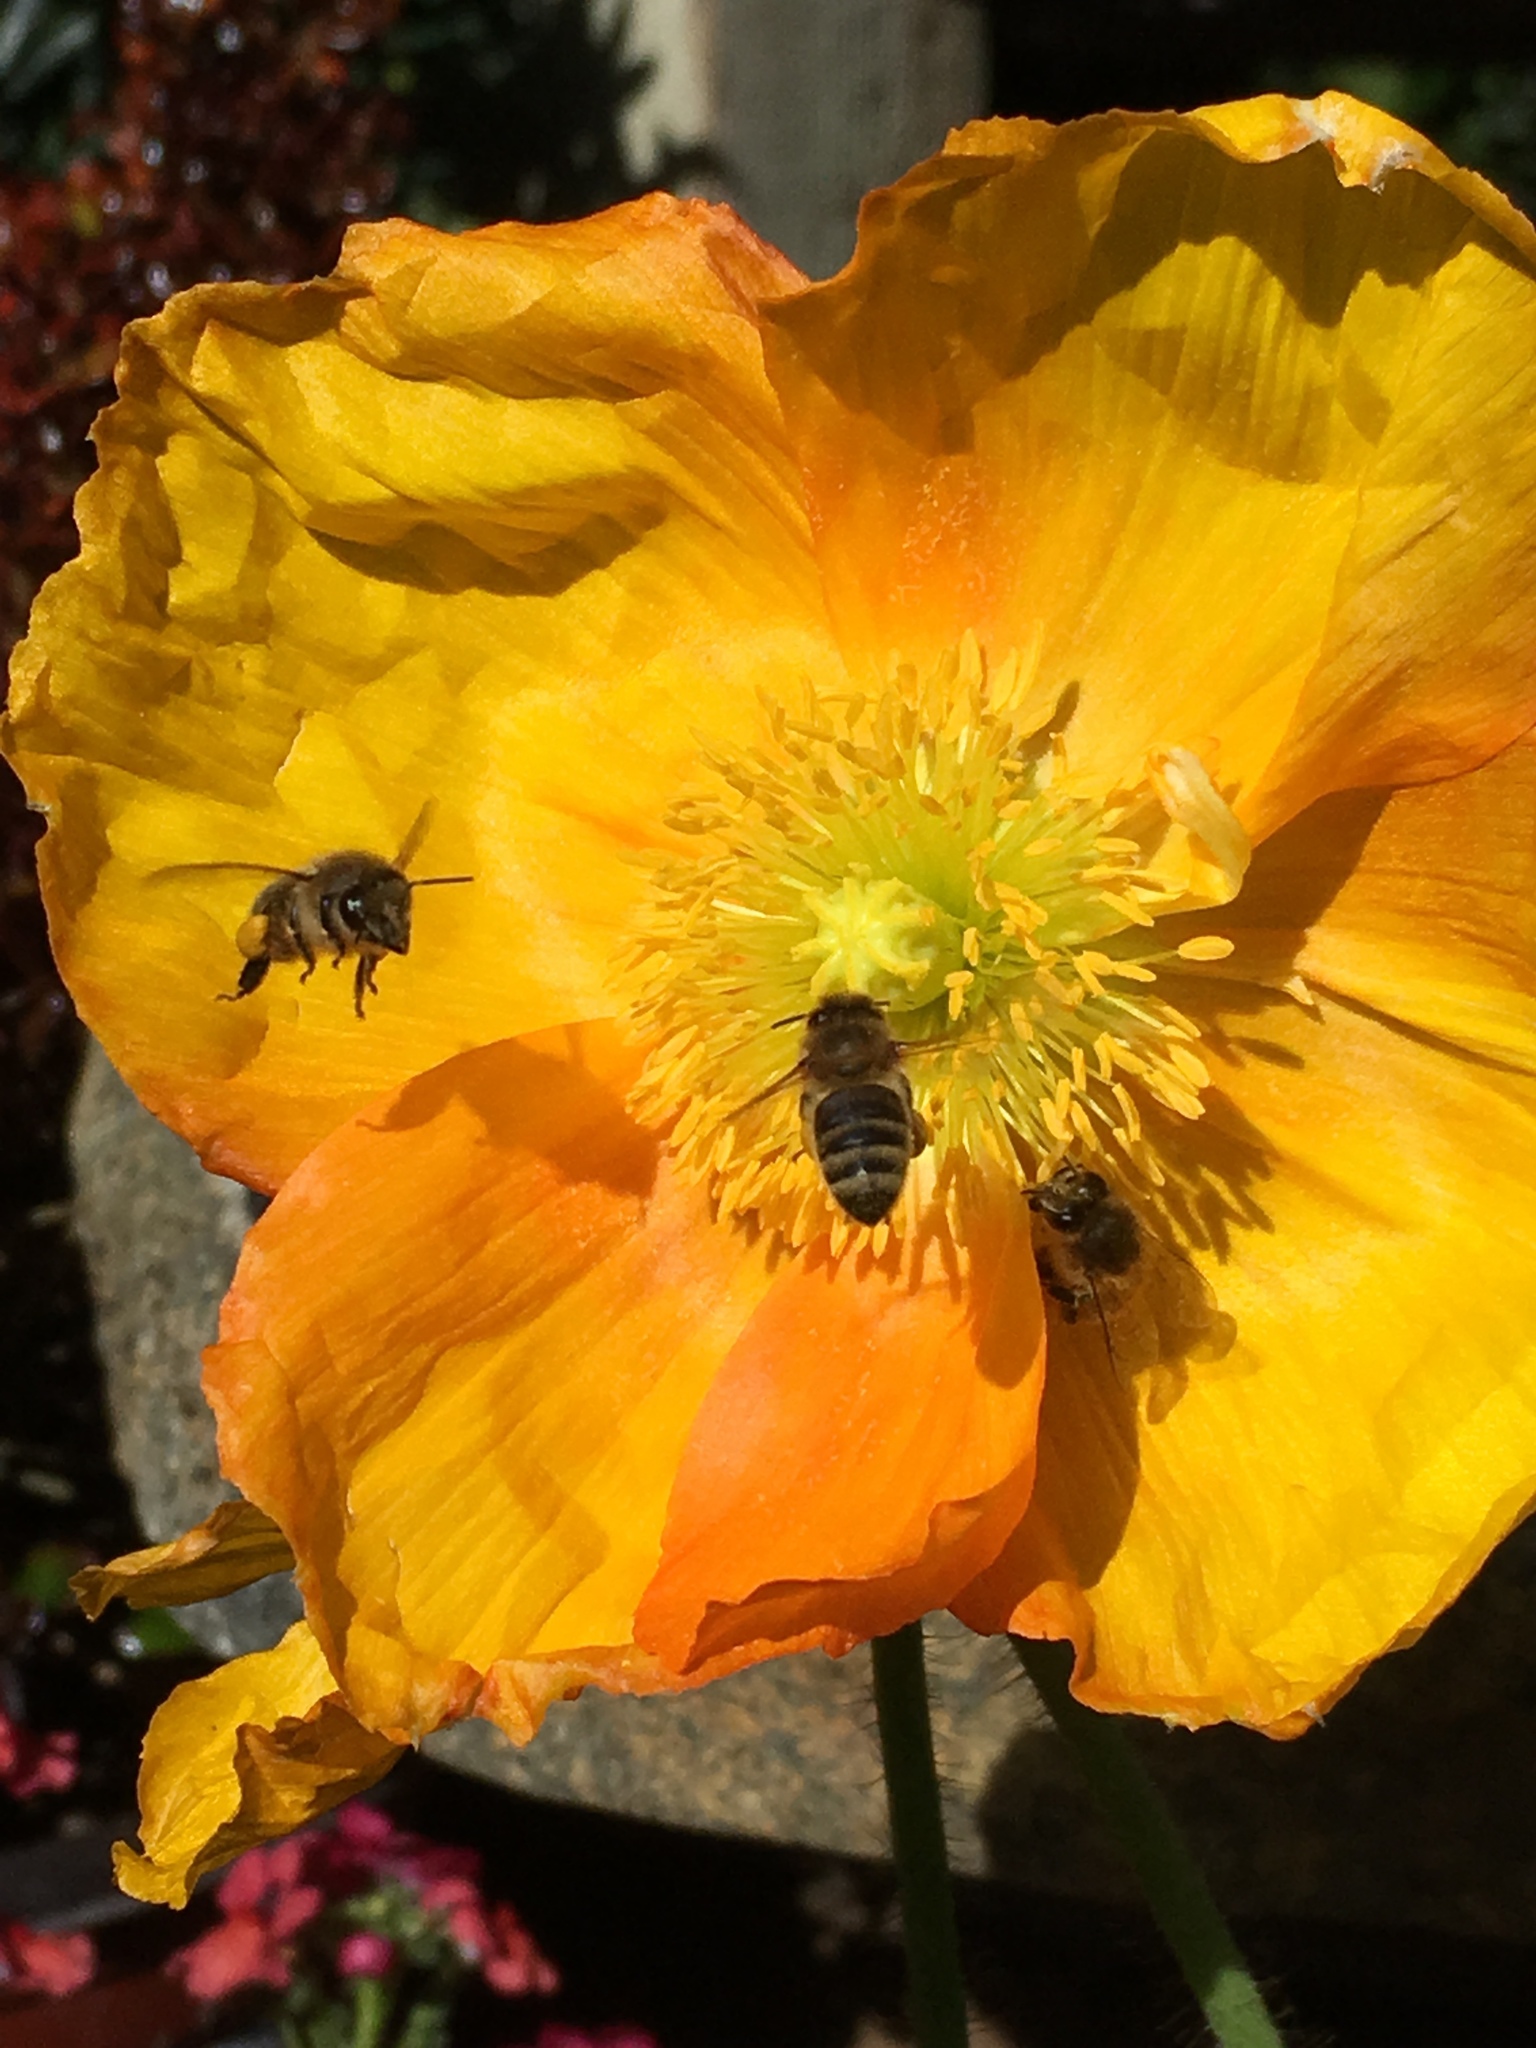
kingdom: Animalia
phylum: Arthropoda
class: Insecta
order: Hymenoptera
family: Apidae
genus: Apis
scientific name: Apis mellifera
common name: Honey bee
